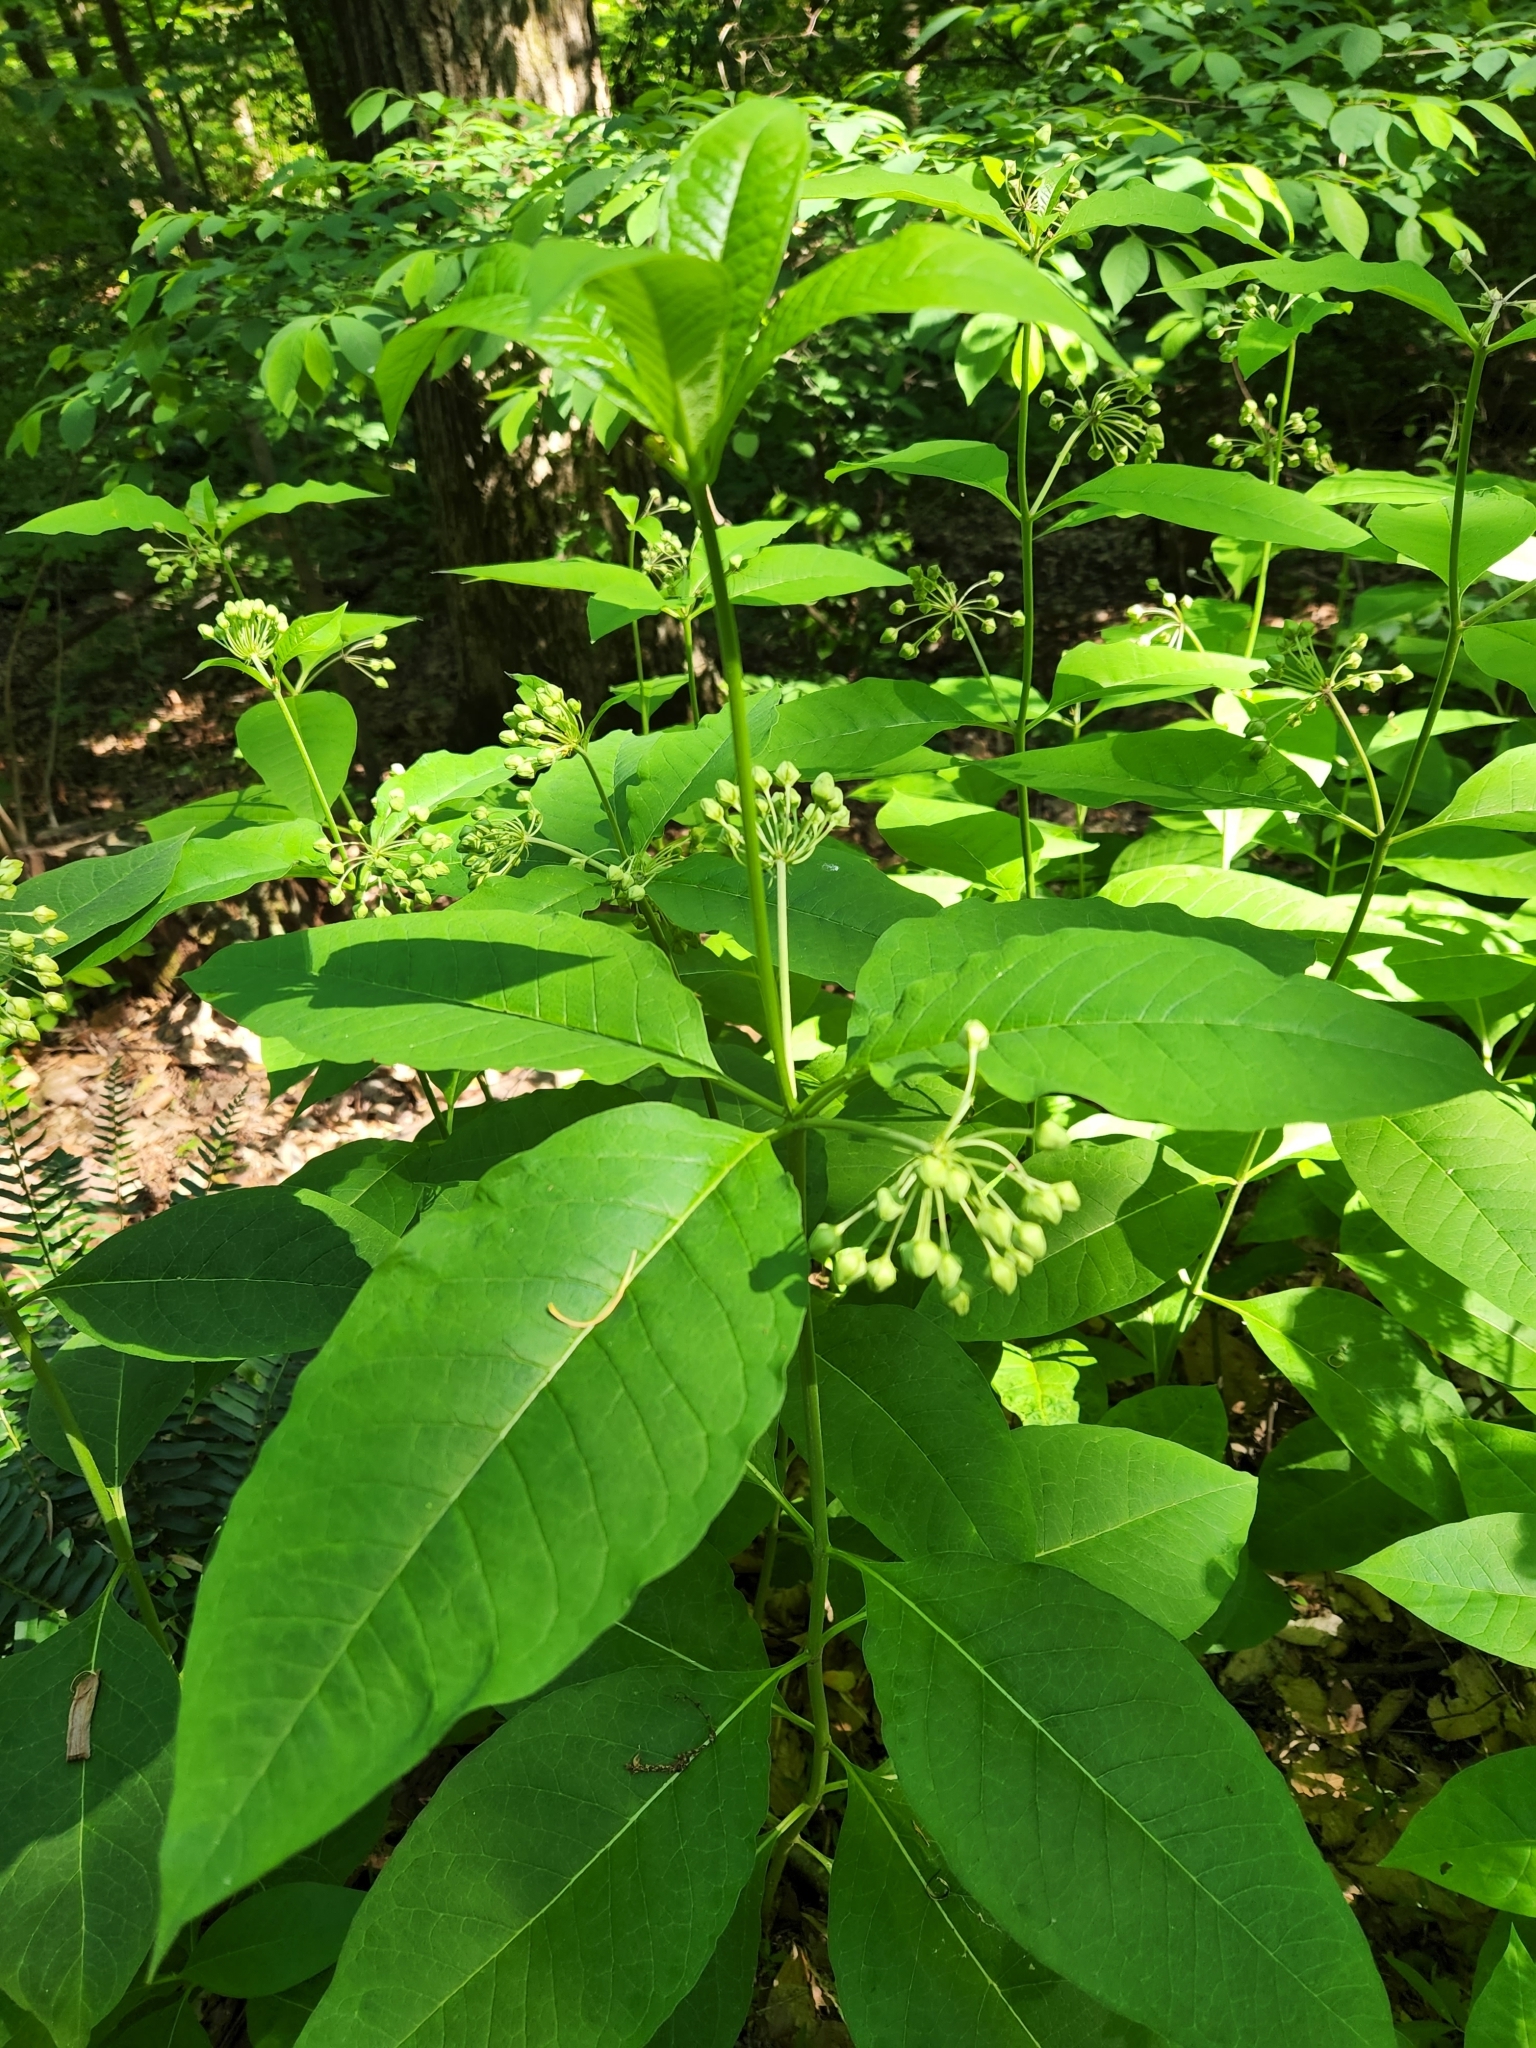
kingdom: Plantae
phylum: Tracheophyta
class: Magnoliopsida
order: Gentianales
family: Apocynaceae
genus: Asclepias
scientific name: Asclepias exaltata
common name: Poke milkweed
